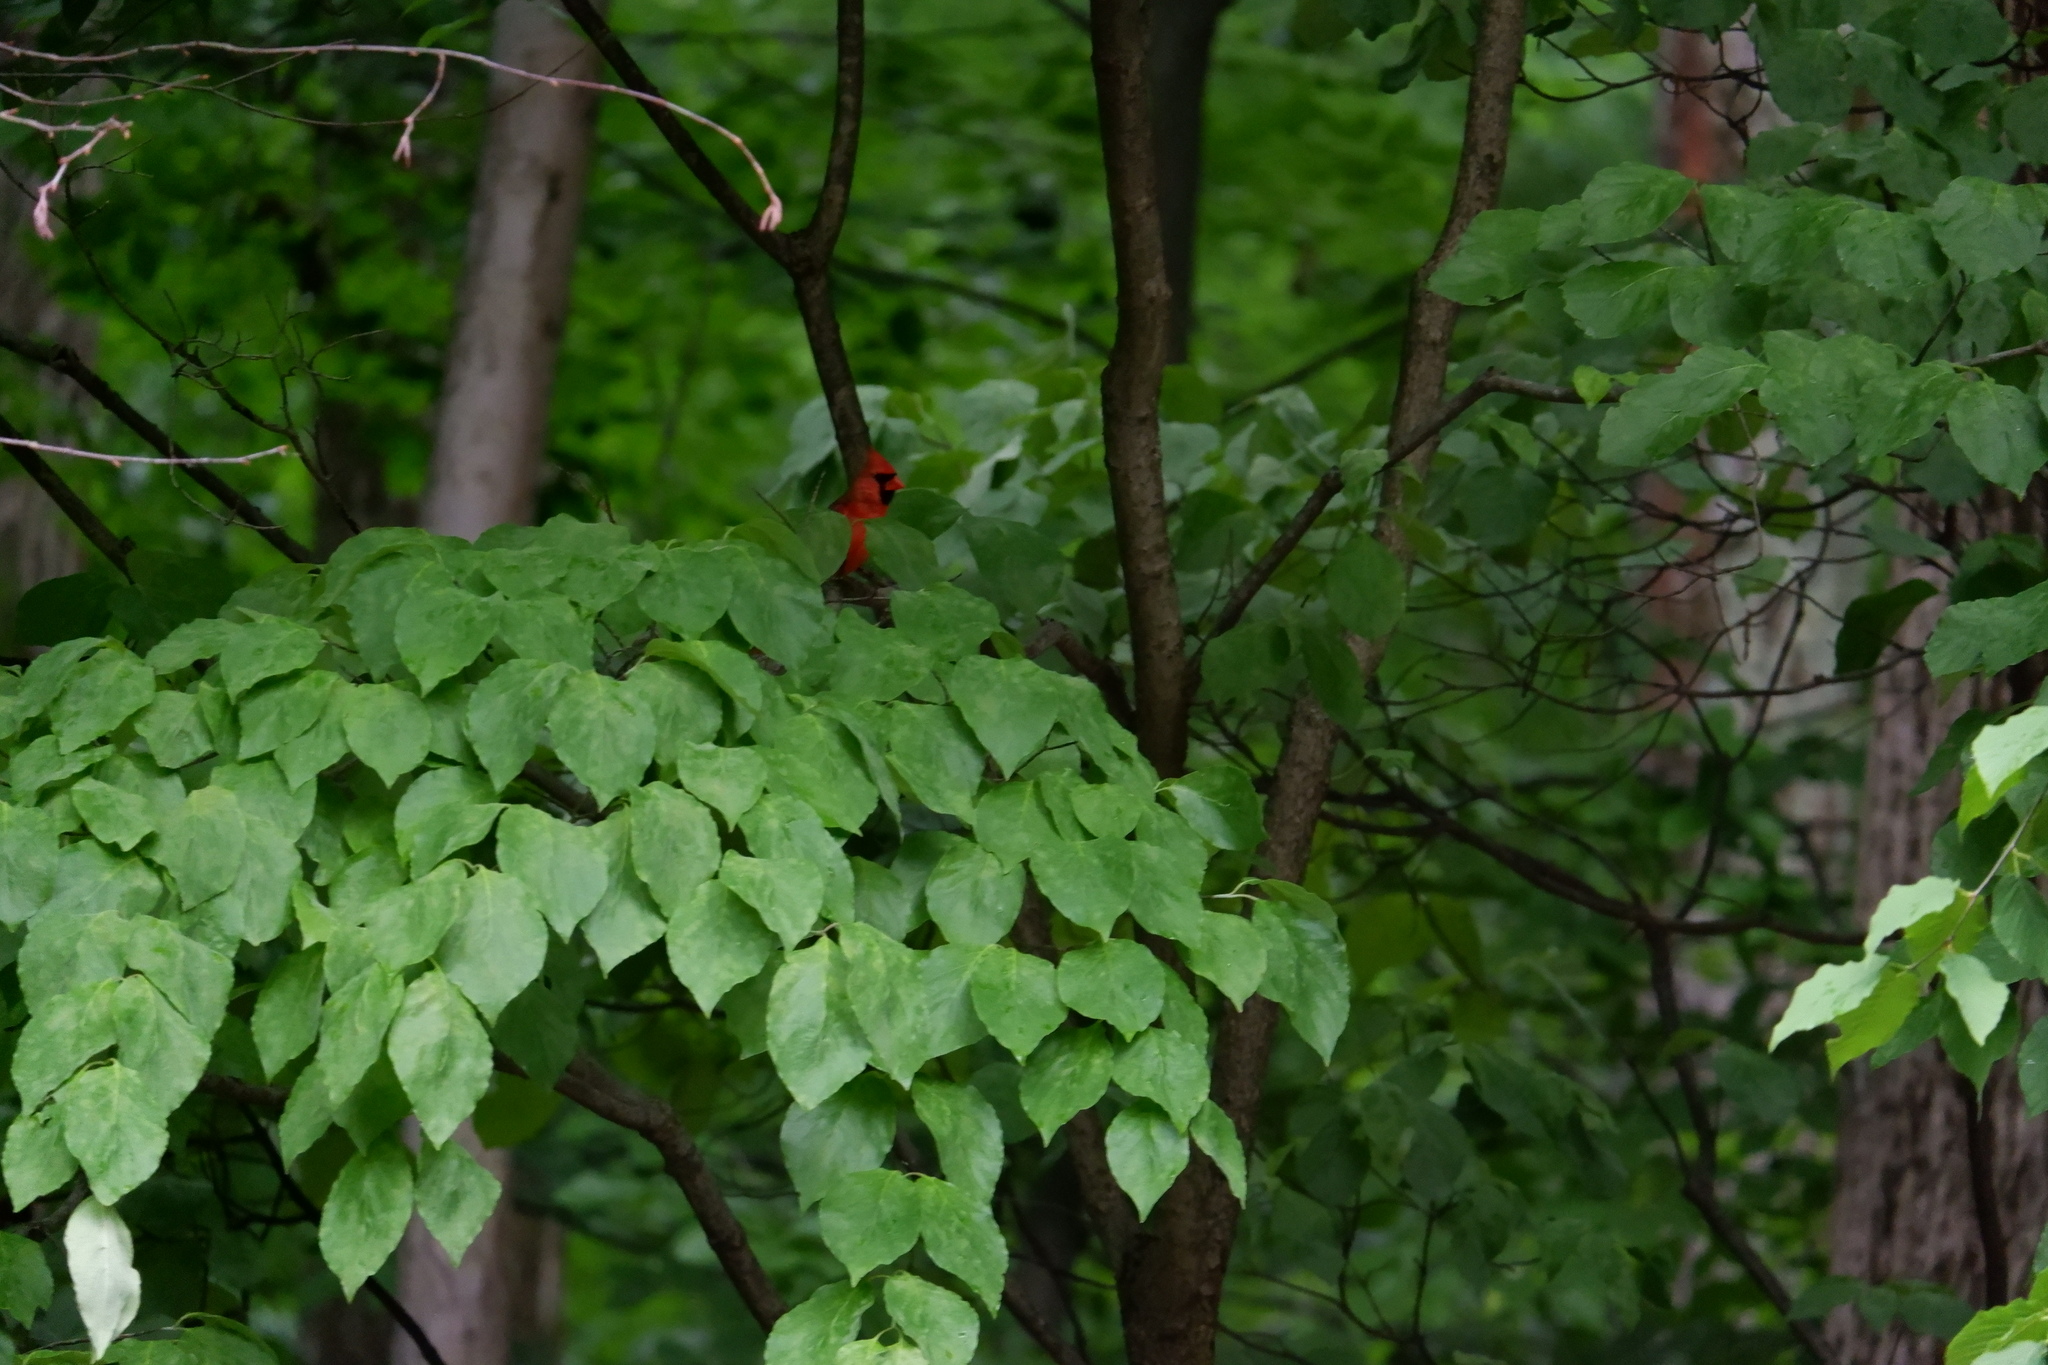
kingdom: Animalia
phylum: Chordata
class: Aves
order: Passeriformes
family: Cardinalidae
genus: Cardinalis
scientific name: Cardinalis cardinalis
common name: Northern cardinal
